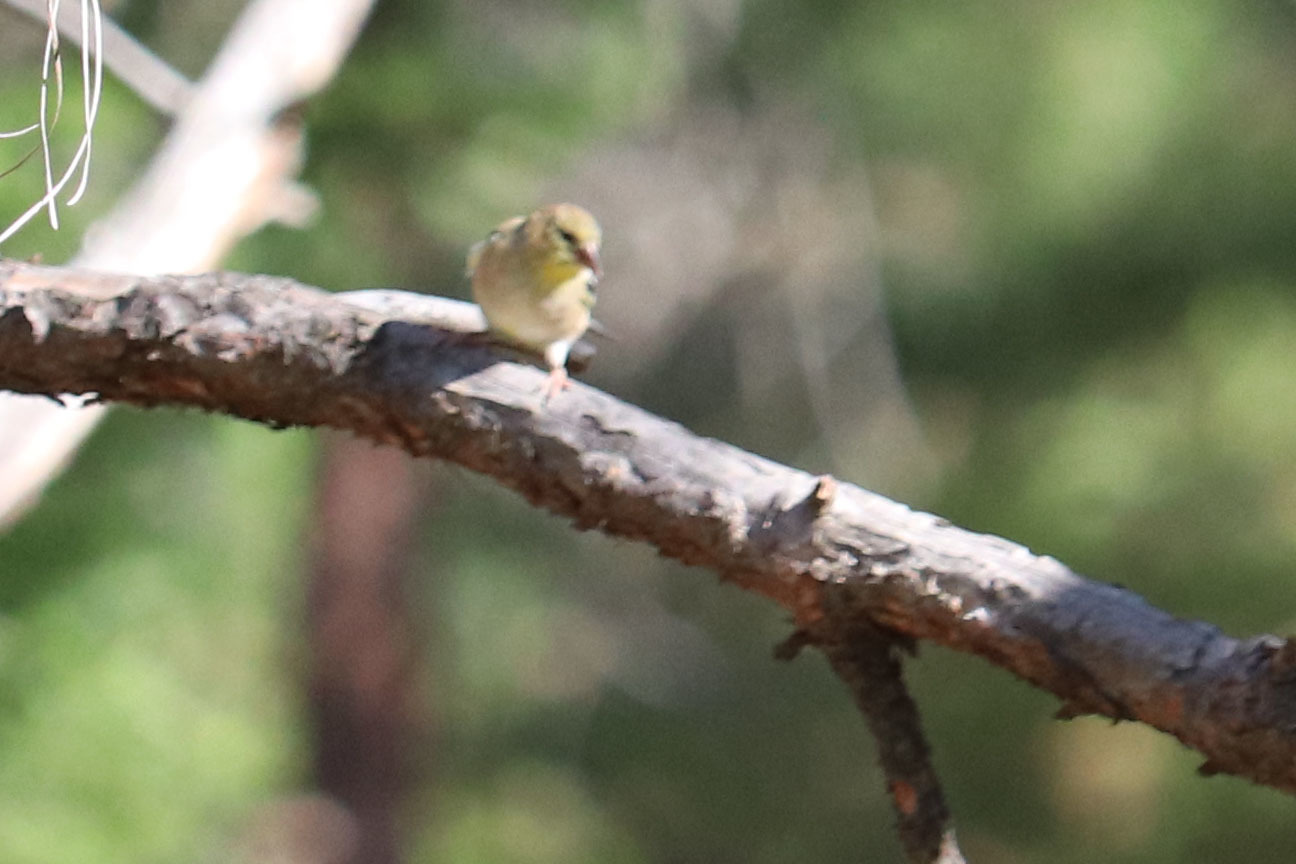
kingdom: Animalia
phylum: Chordata
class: Aves
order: Passeriformes
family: Fringillidae
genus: Spinus
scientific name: Spinus tristis
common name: American goldfinch
